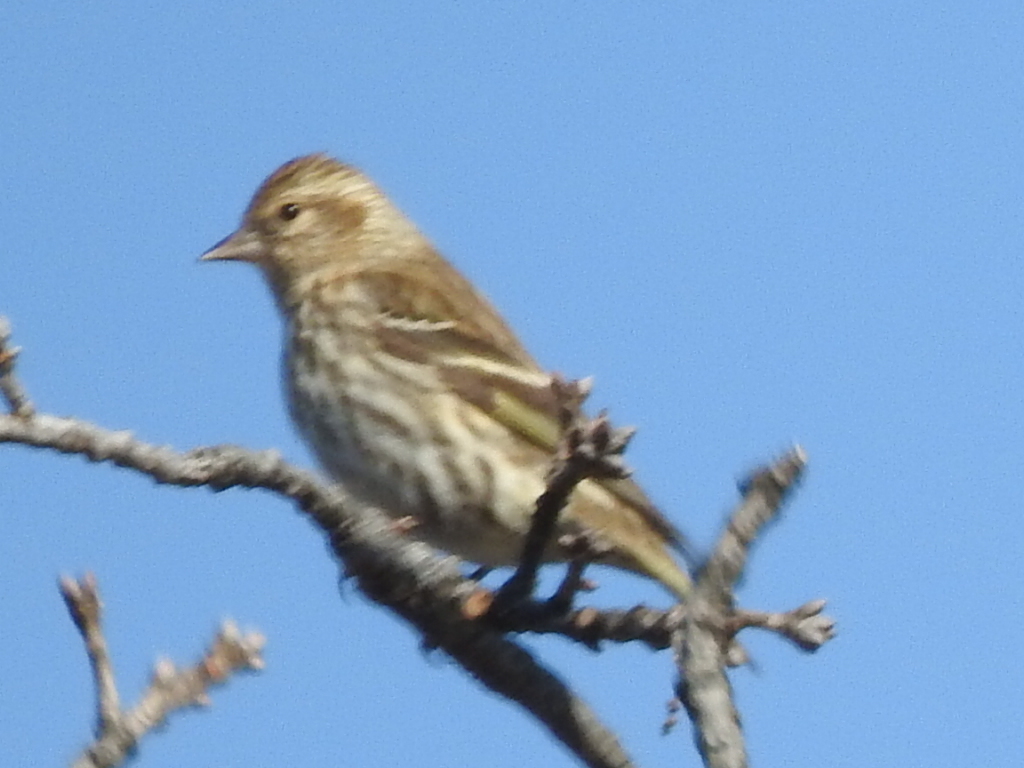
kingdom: Animalia
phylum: Chordata
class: Aves
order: Passeriformes
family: Fringillidae
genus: Spinus
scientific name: Spinus pinus
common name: Pine siskin
